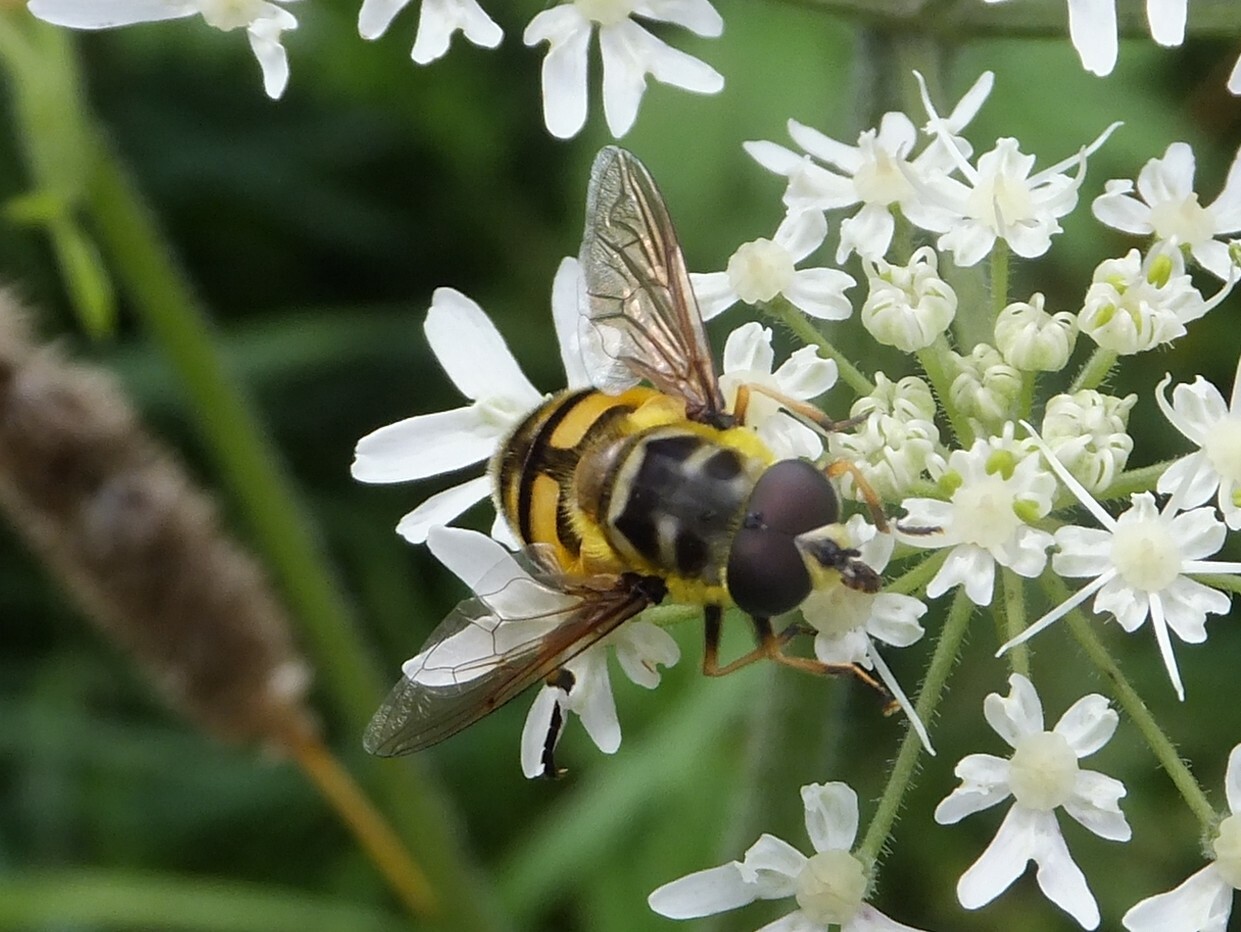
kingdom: Animalia
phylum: Arthropoda
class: Insecta
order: Diptera
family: Syrphidae
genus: Myathropa
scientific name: Myathropa florea
